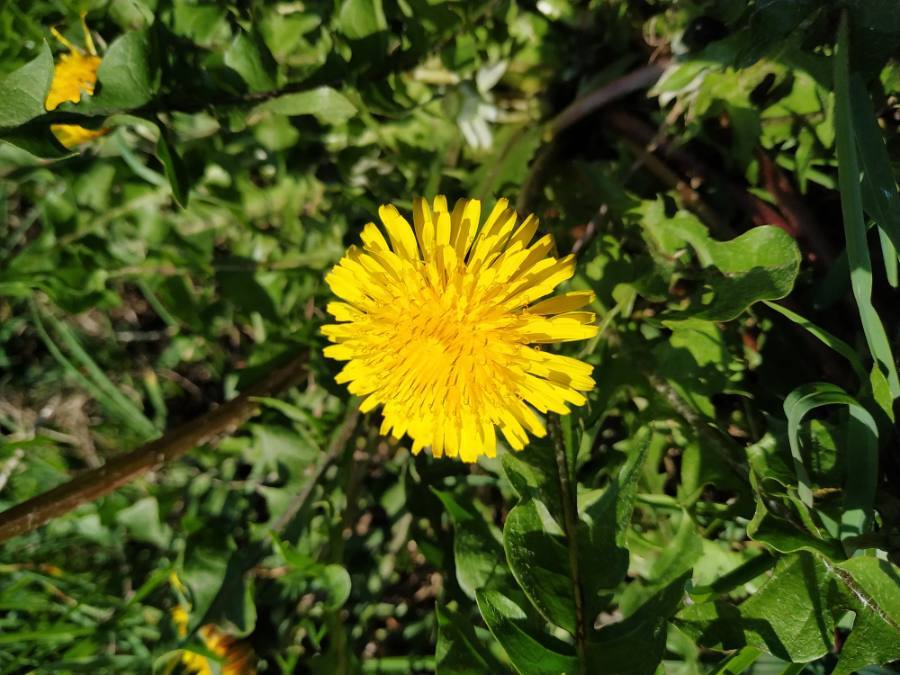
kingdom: Plantae
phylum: Tracheophyta
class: Magnoliopsida
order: Asterales
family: Asteraceae
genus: Taraxacum
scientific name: Taraxacum officinale
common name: Common dandelion
